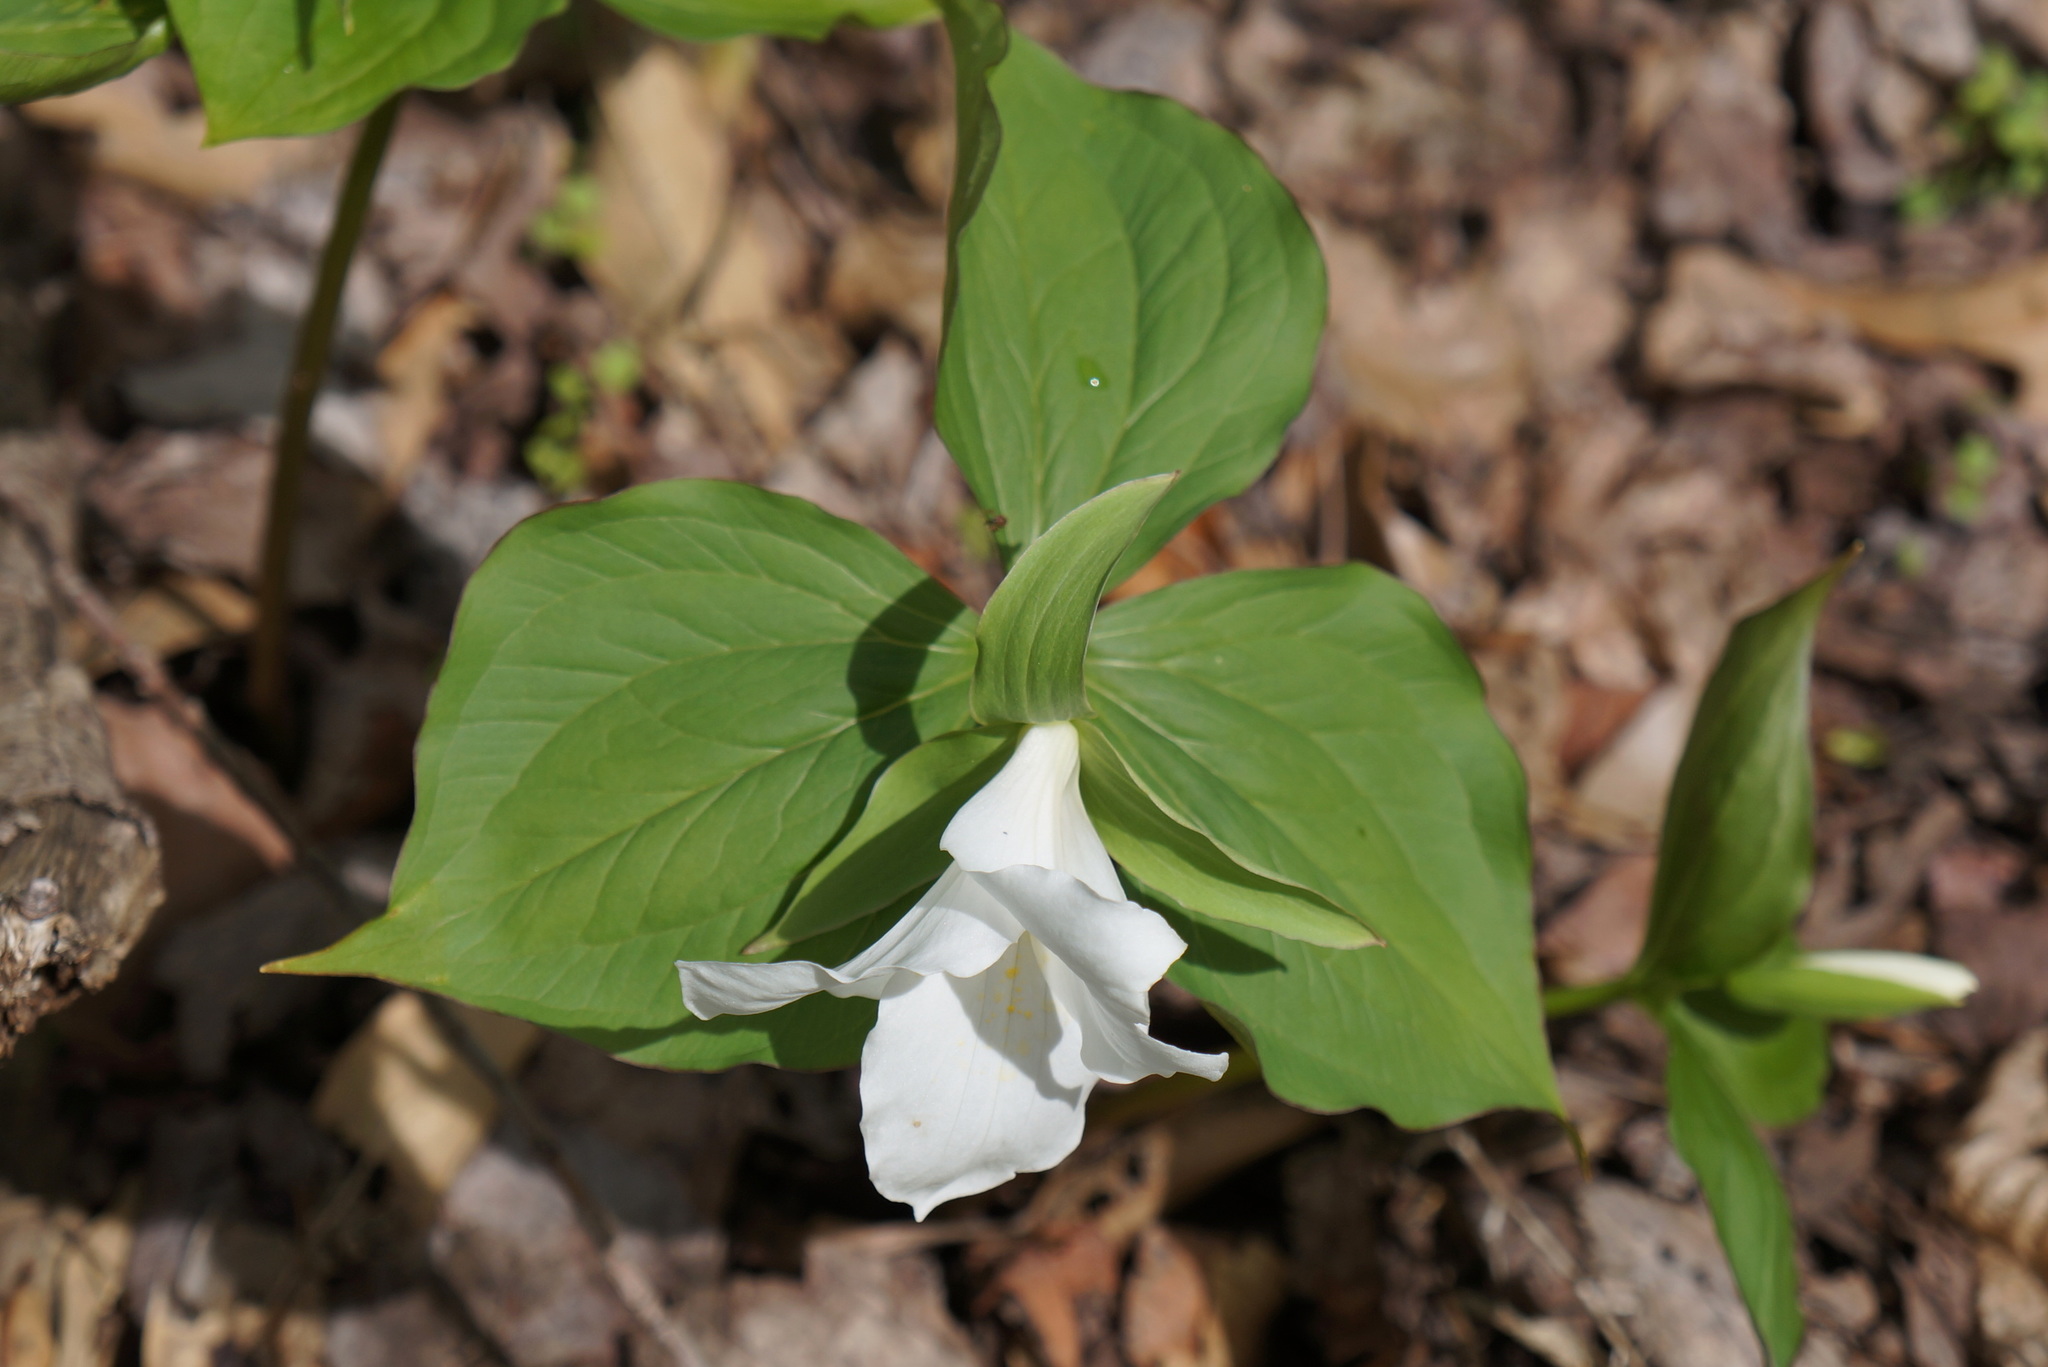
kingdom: Plantae
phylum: Tracheophyta
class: Liliopsida
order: Liliales
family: Melanthiaceae
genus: Trillium
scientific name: Trillium grandiflorum
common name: Great white trillium
